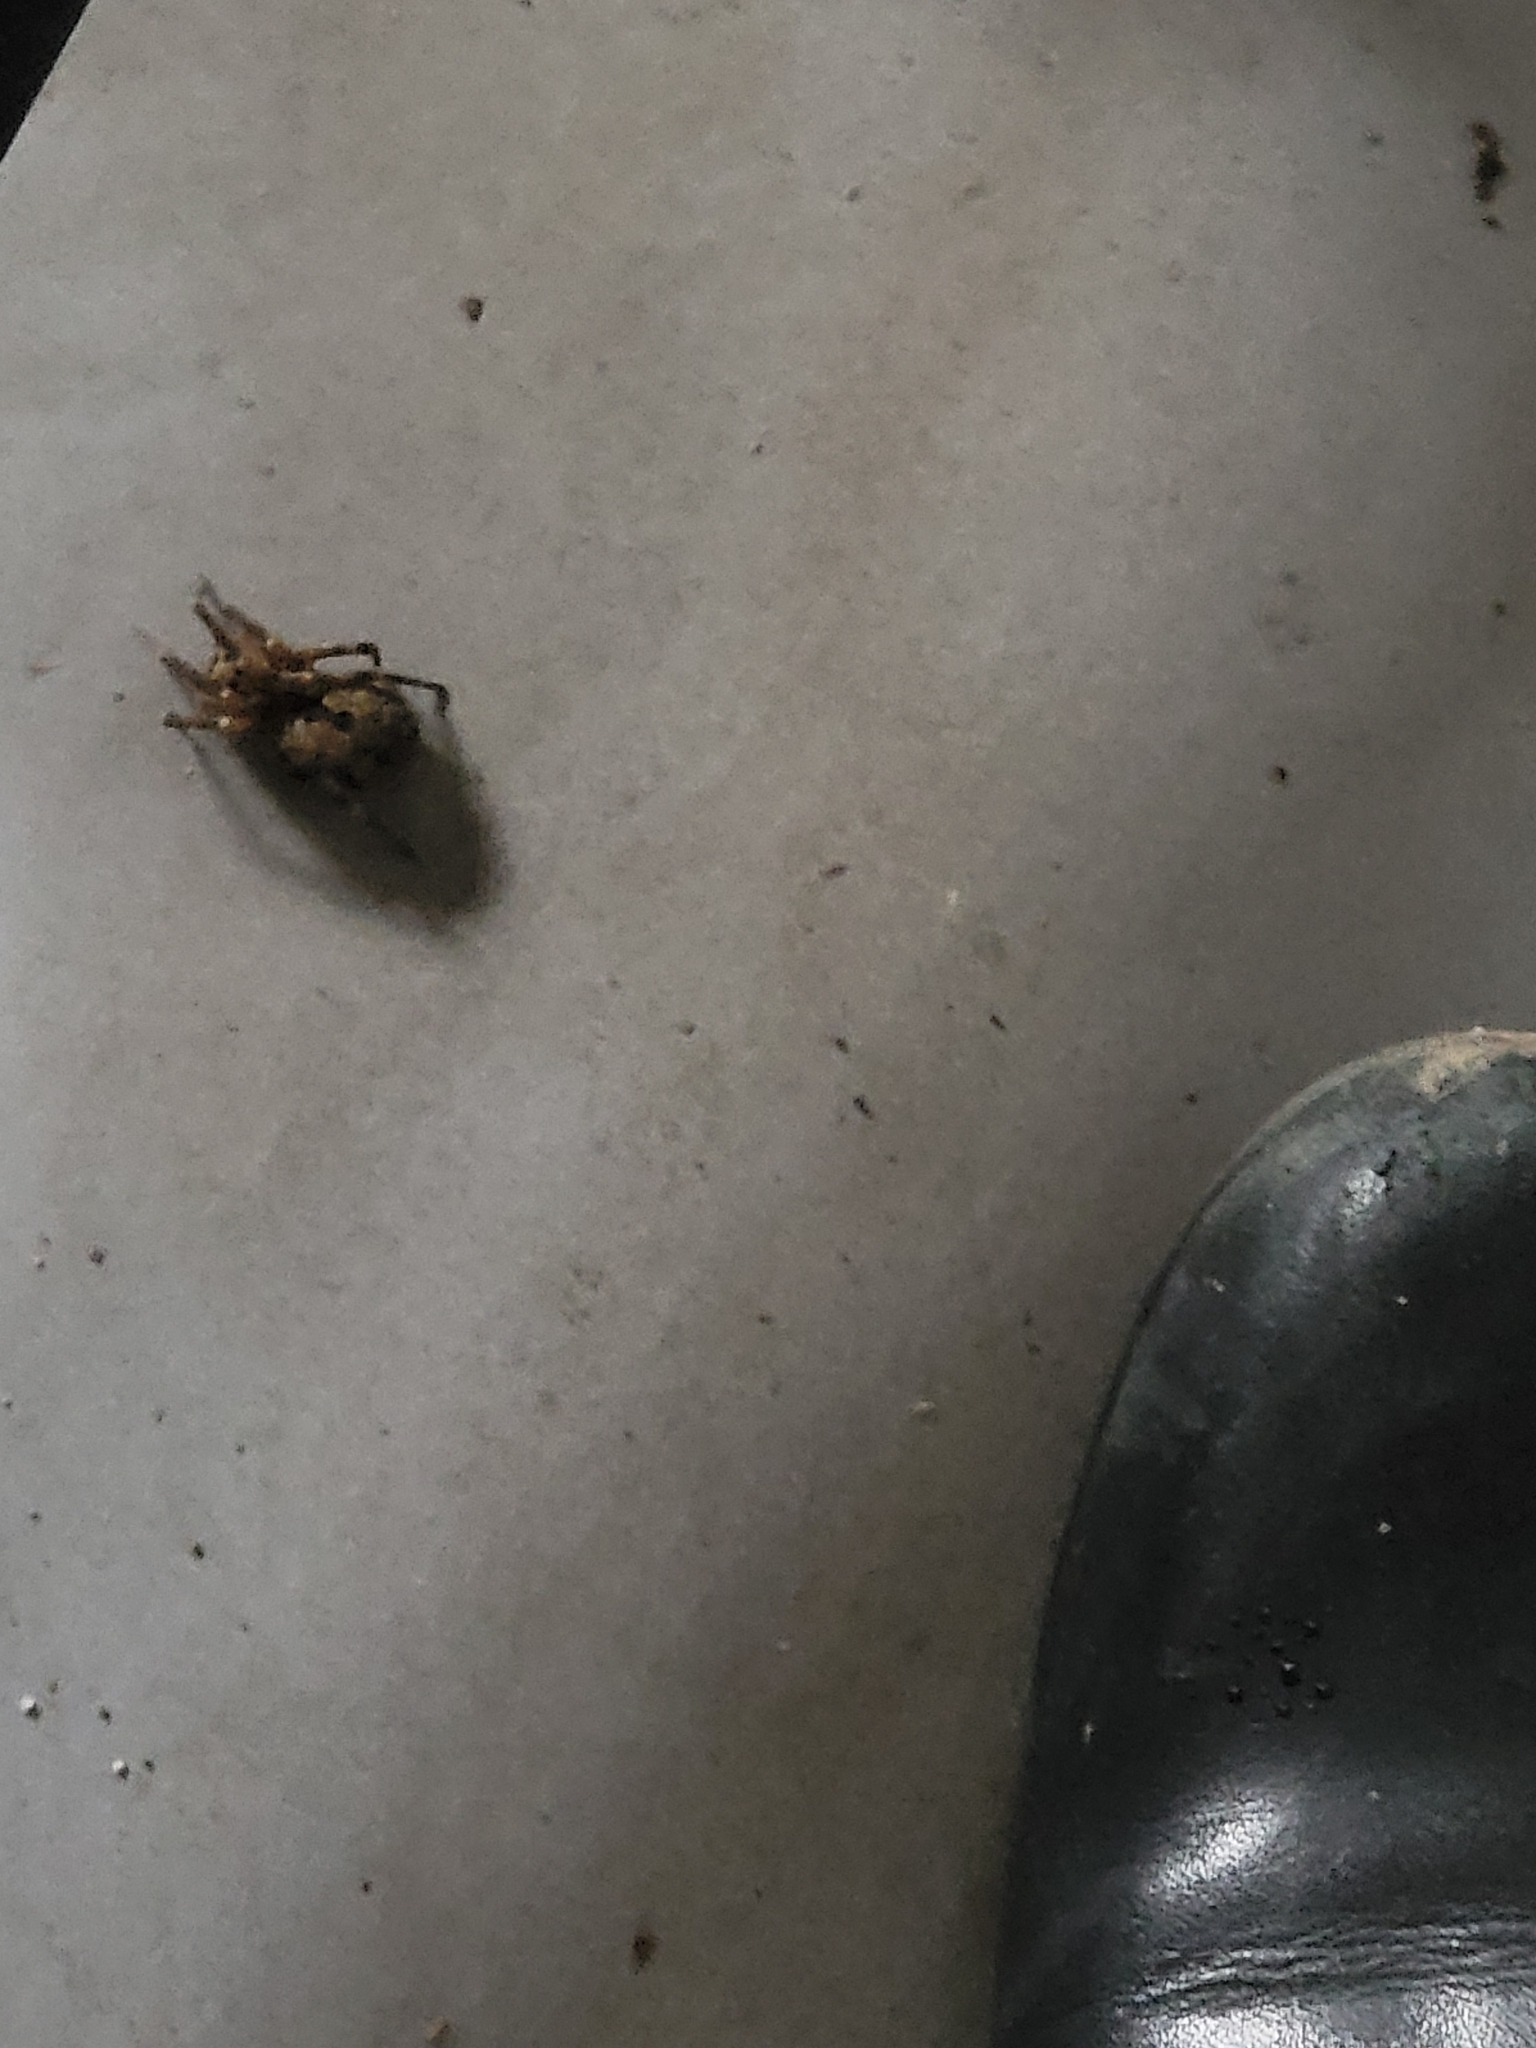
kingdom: Animalia
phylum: Arthropoda
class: Arachnida
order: Araneae
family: Zoropsidae
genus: Zoropsis
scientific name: Zoropsis spinimana
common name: Zoropsid spider
